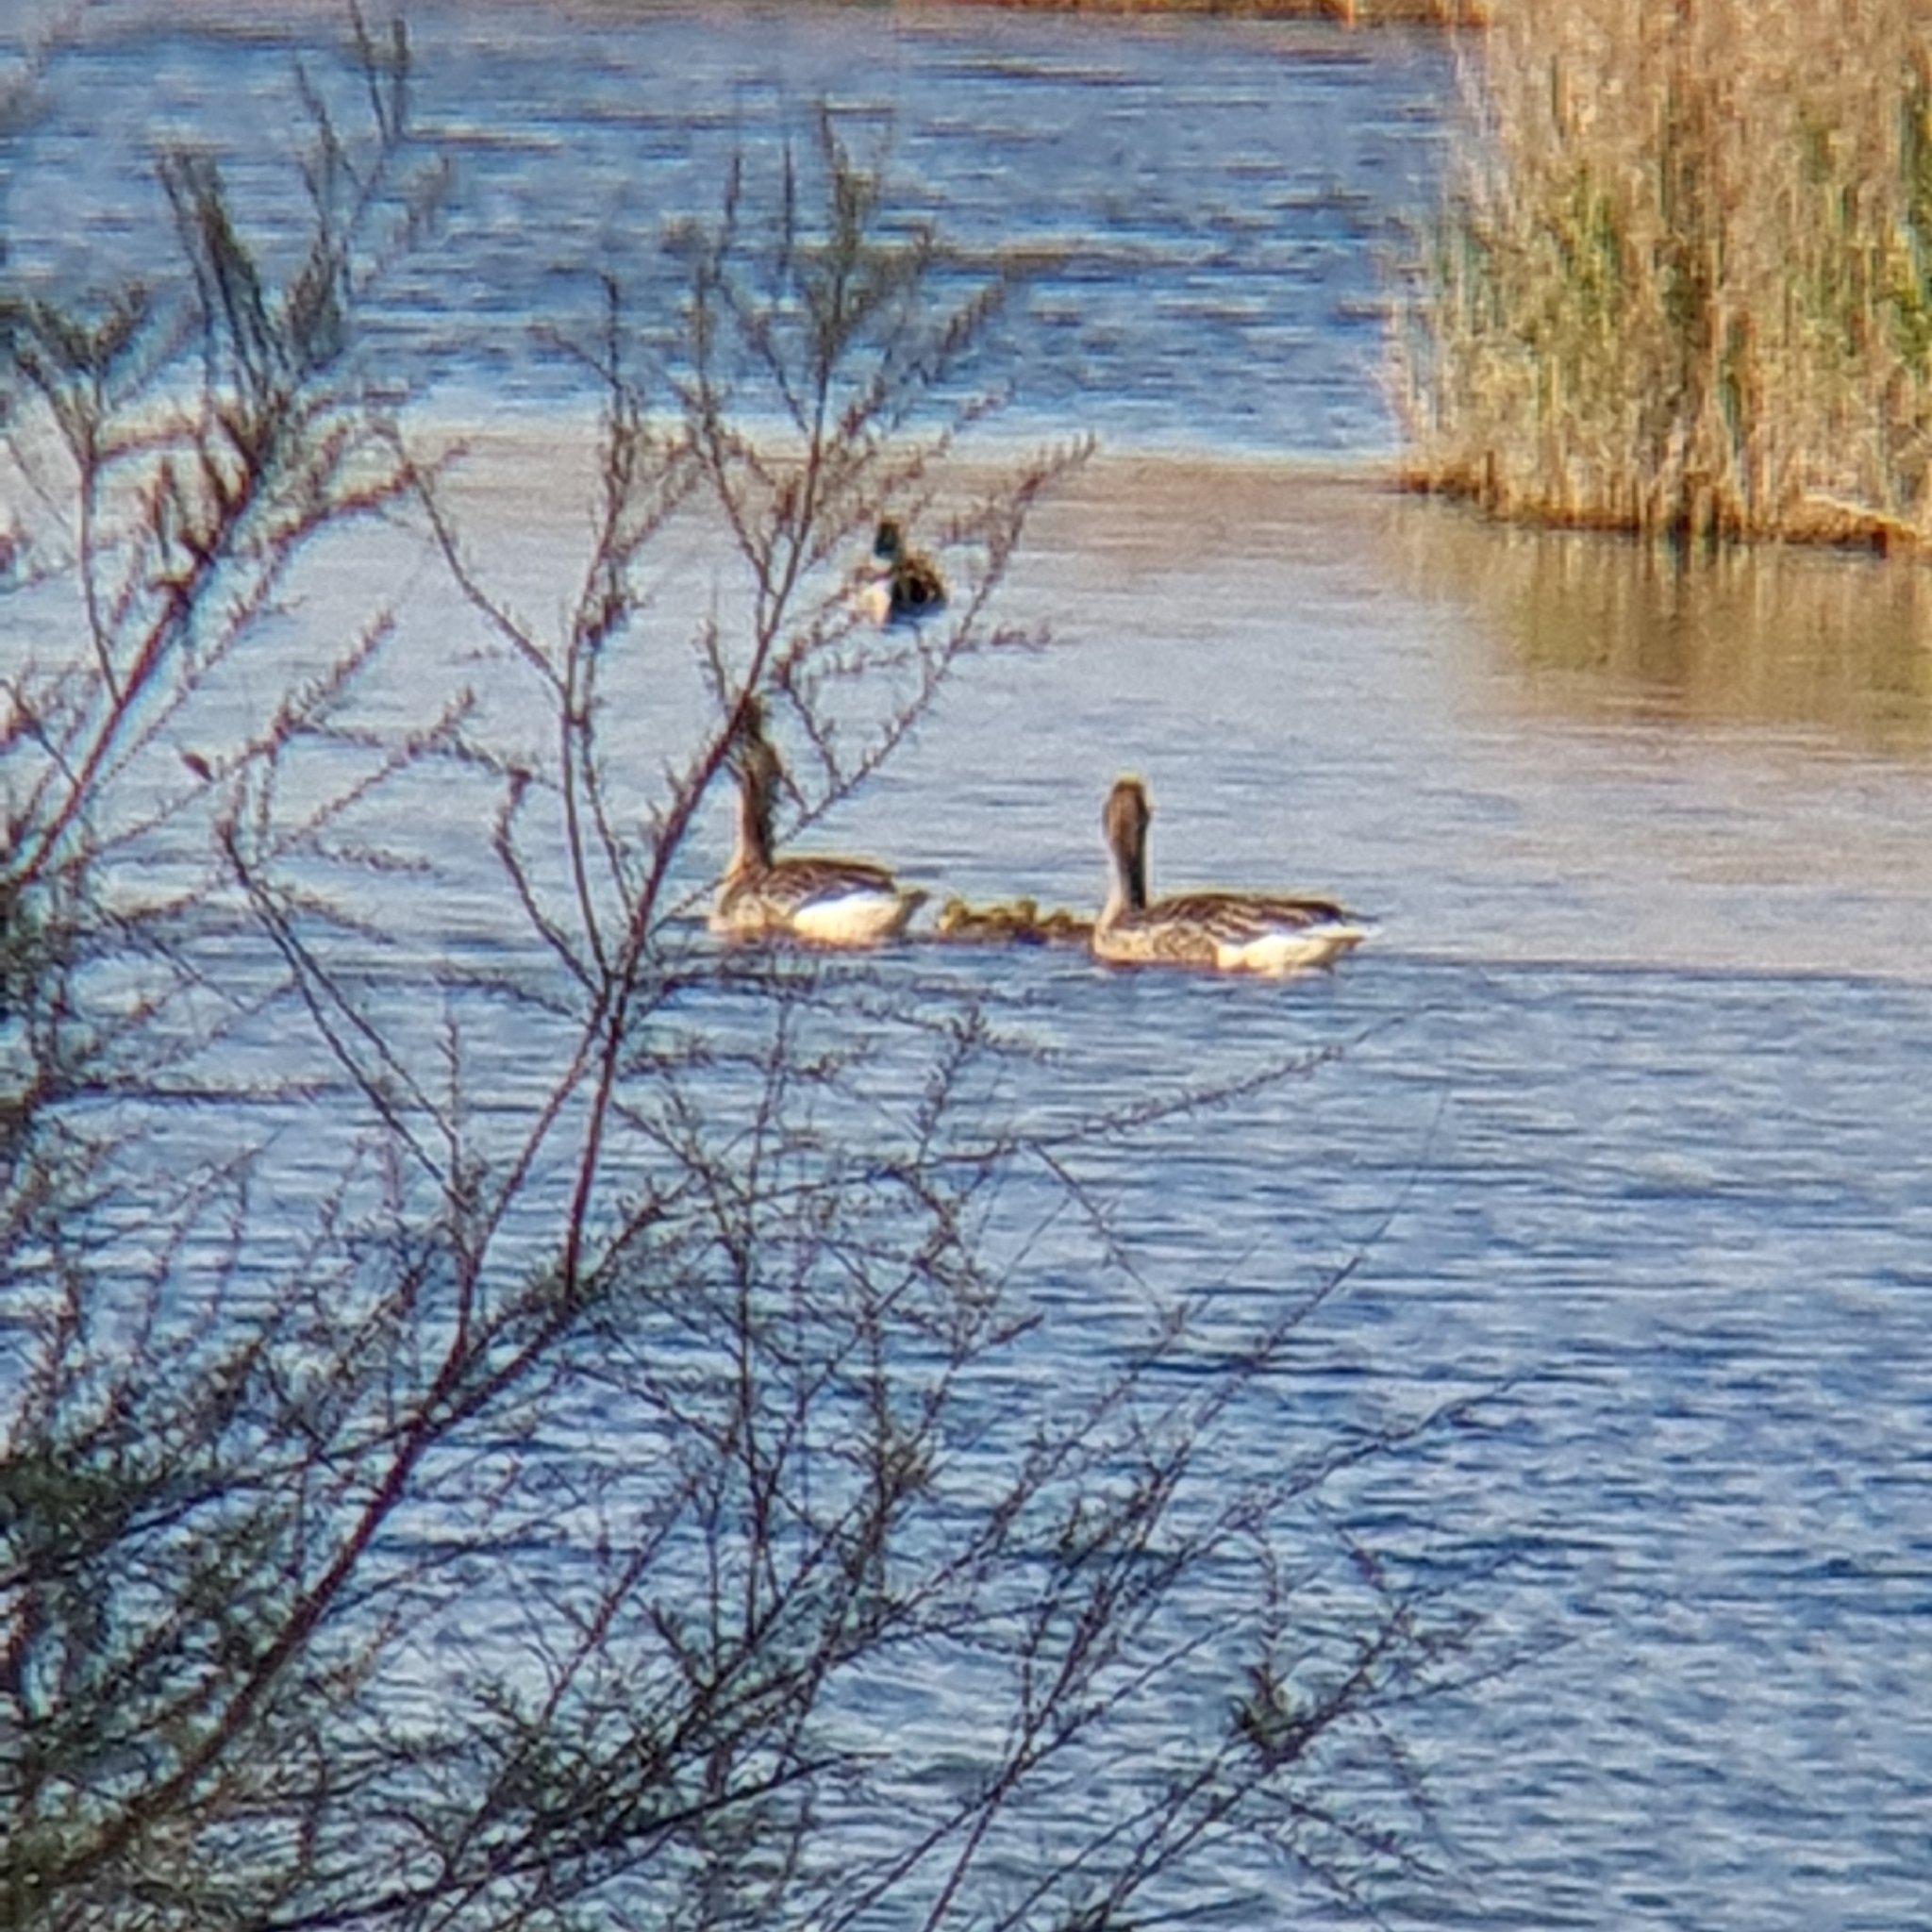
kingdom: Animalia
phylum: Chordata
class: Aves
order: Anseriformes
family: Anatidae
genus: Anser
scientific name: Anser anser
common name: Greylag goose
